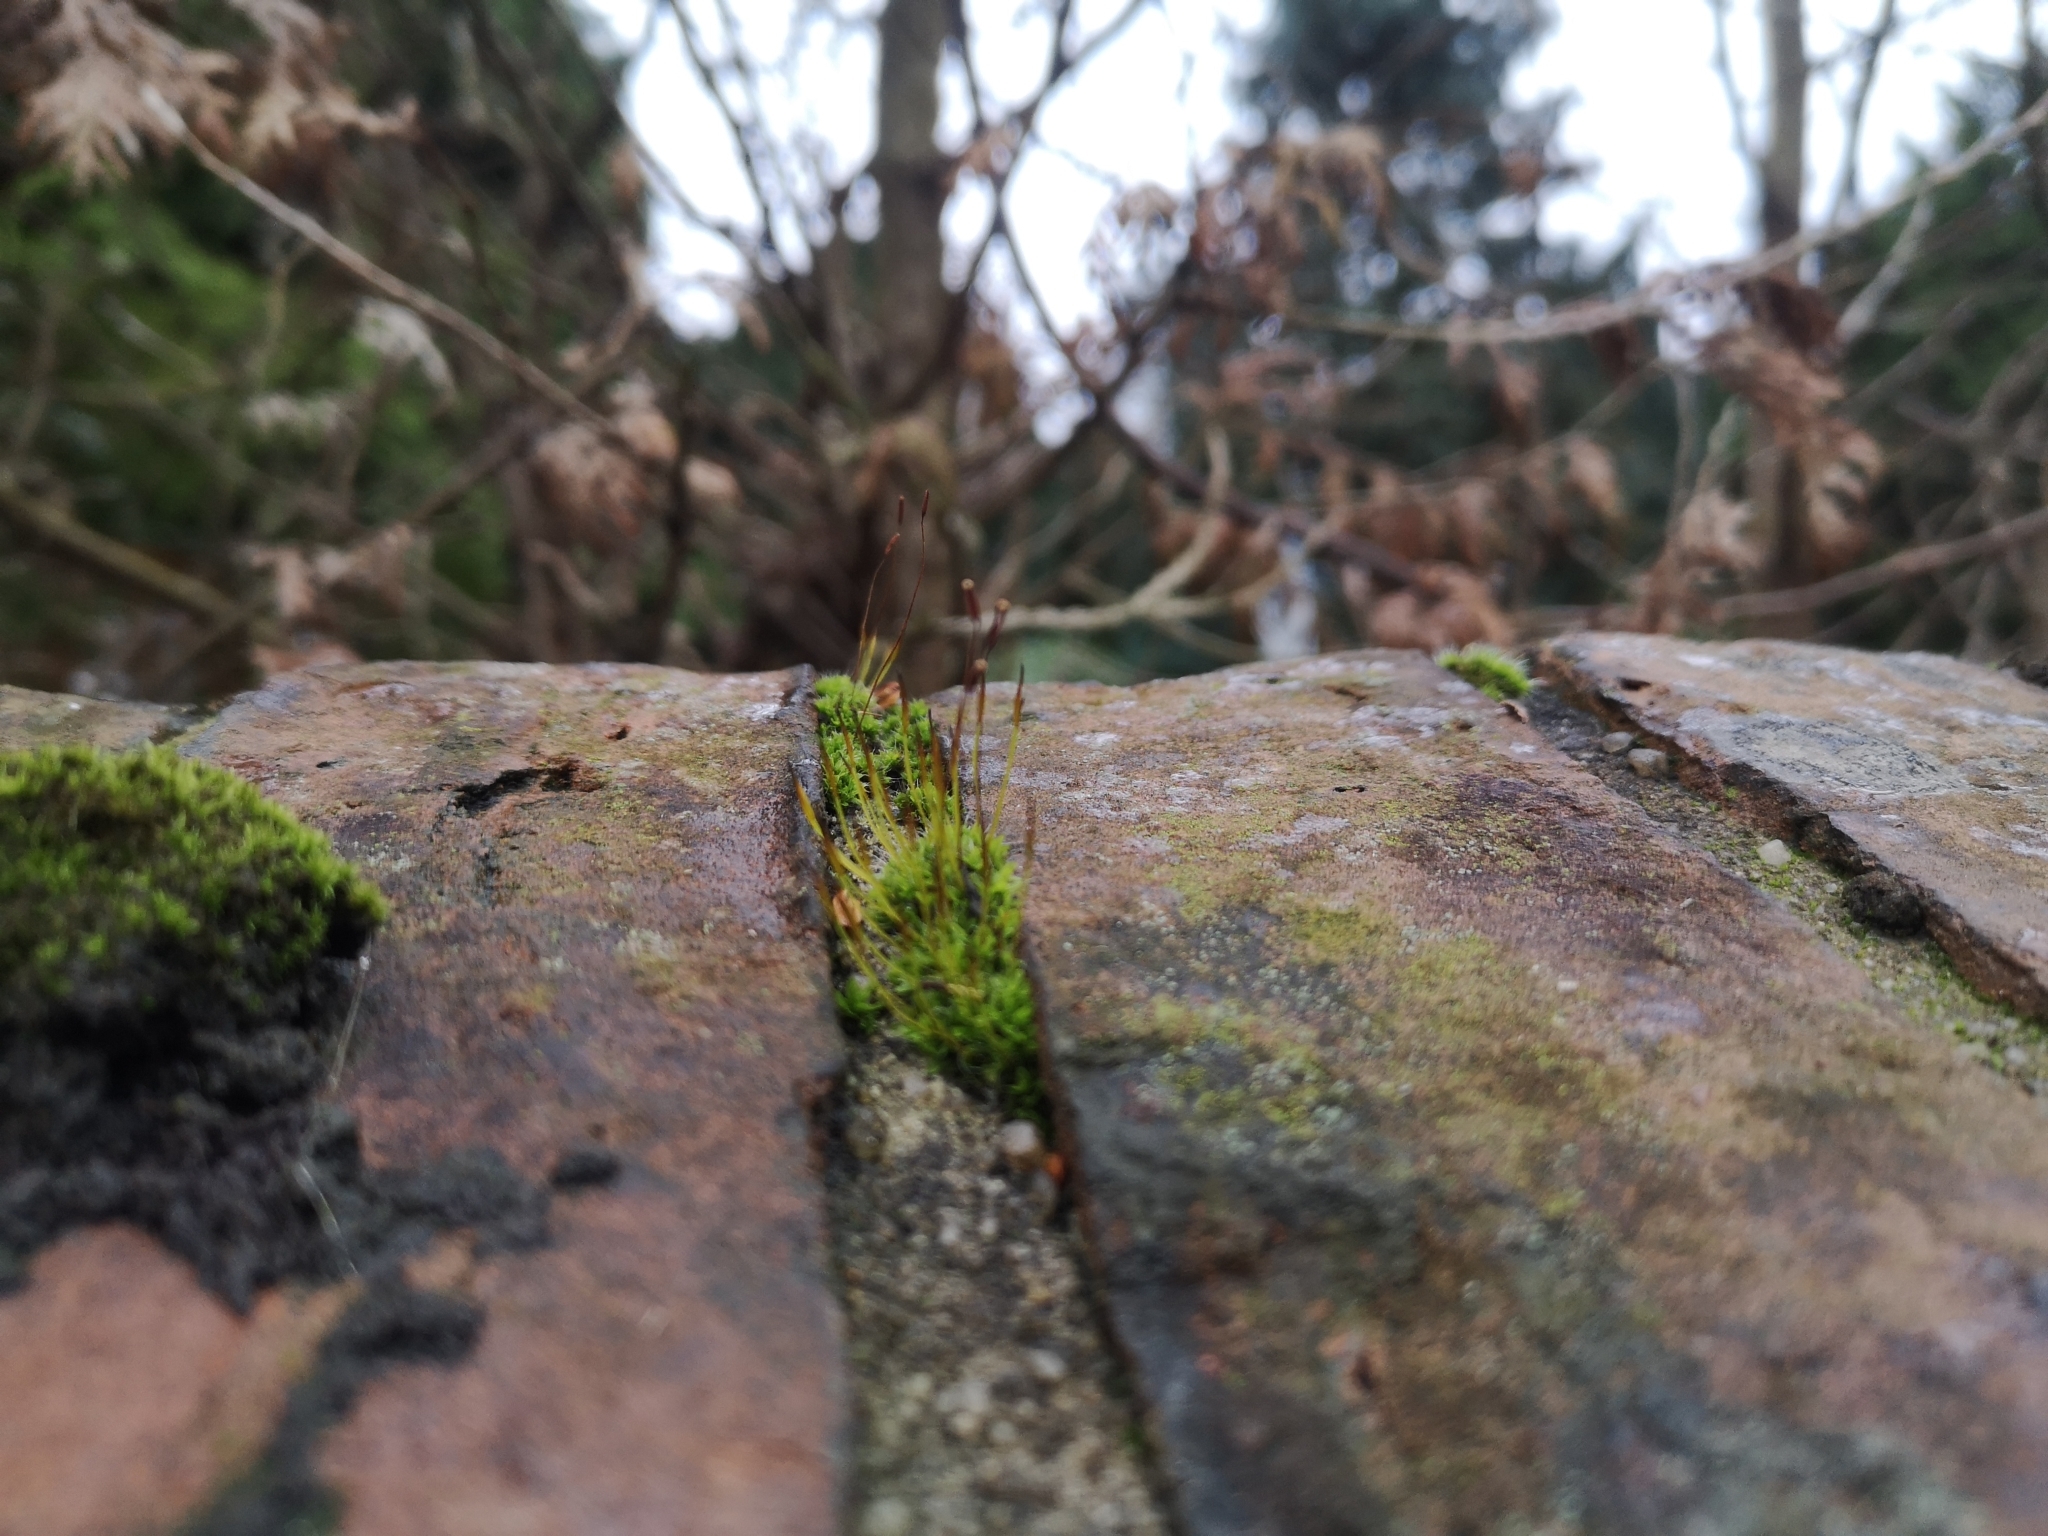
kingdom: Plantae
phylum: Bryophyta
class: Bryopsida
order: Pottiales
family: Pottiaceae
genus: Tortula
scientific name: Tortula muralis
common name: Wall screw-moss
